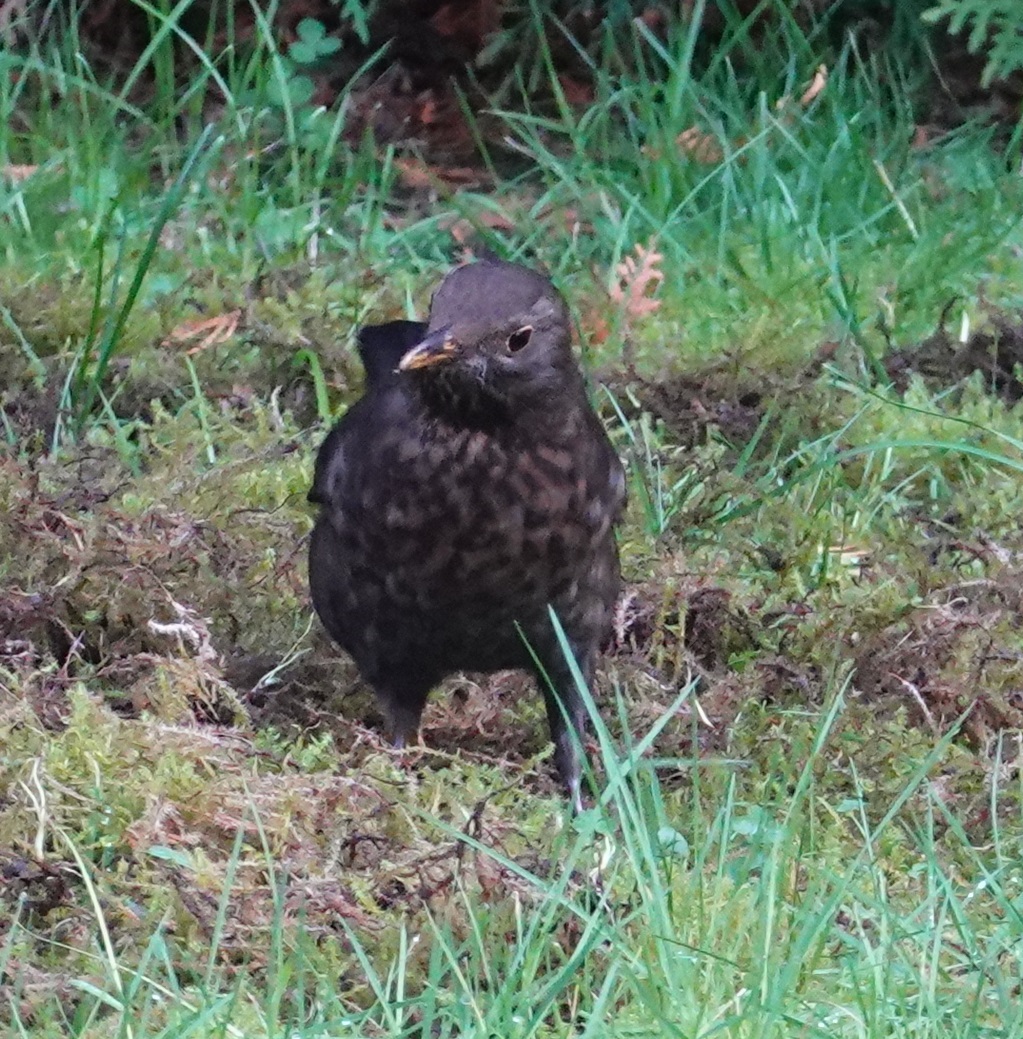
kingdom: Animalia
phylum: Chordata
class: Aves
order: Passeriformes
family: Turdidae
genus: Turdus
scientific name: Turdus merula
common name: Common blackbird
